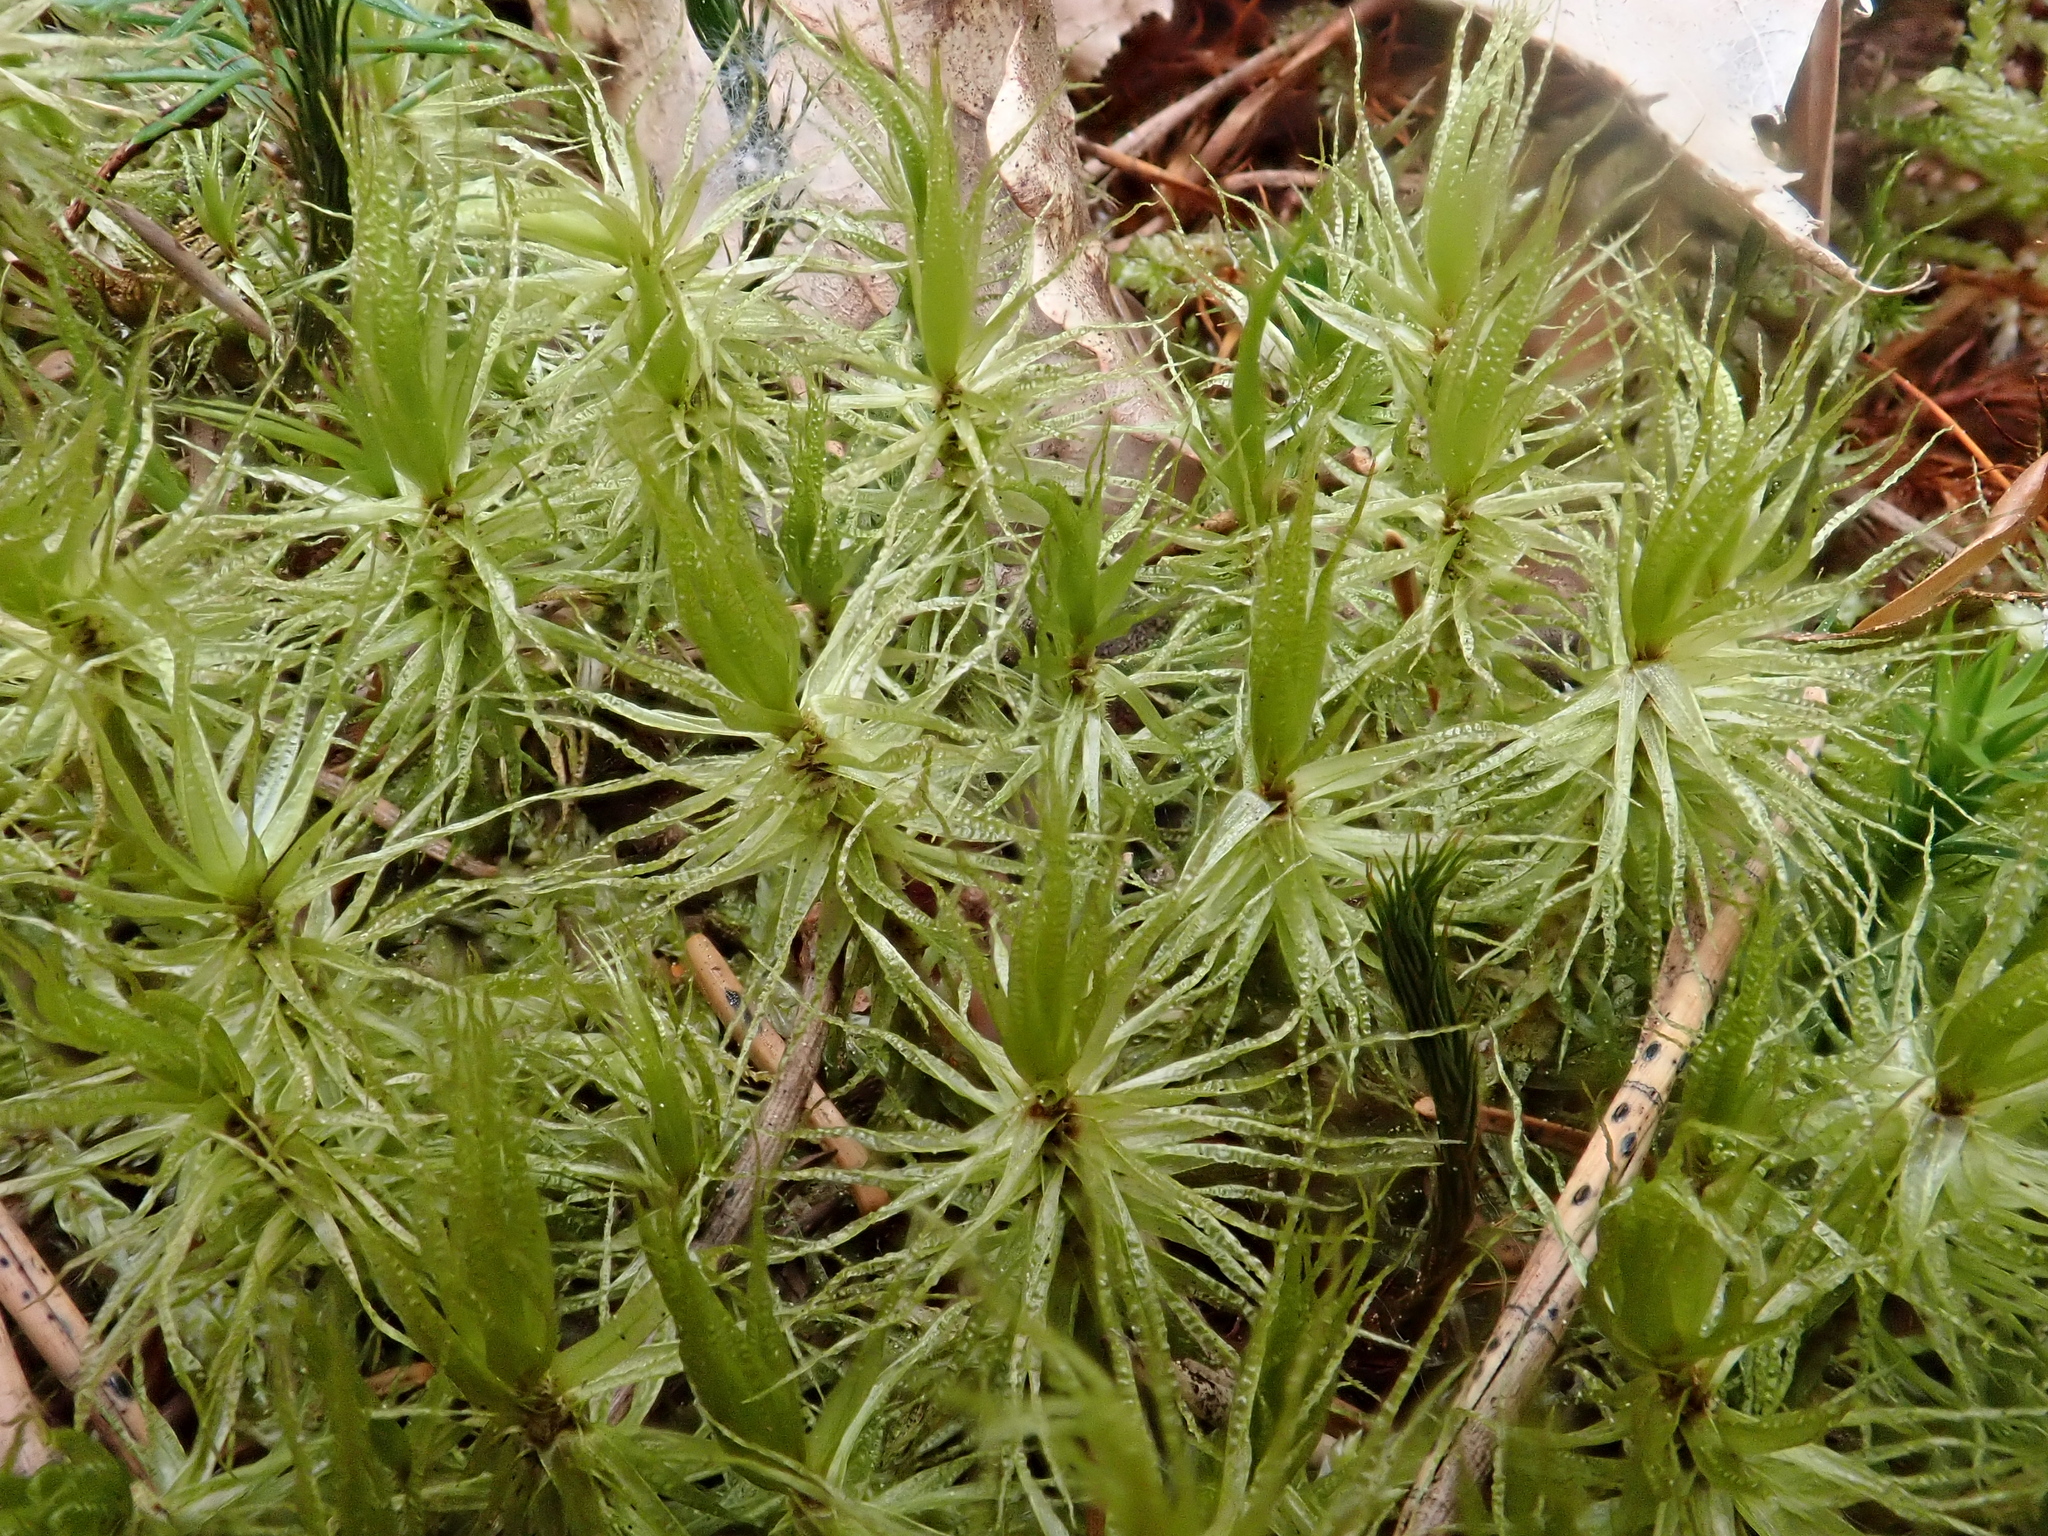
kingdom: Plantae
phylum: Bryophyta
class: Bryopsida
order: Dicranales
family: Dicranaceae
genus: Dicranum
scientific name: Dicranum polysetum
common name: Rugose fork-moss
